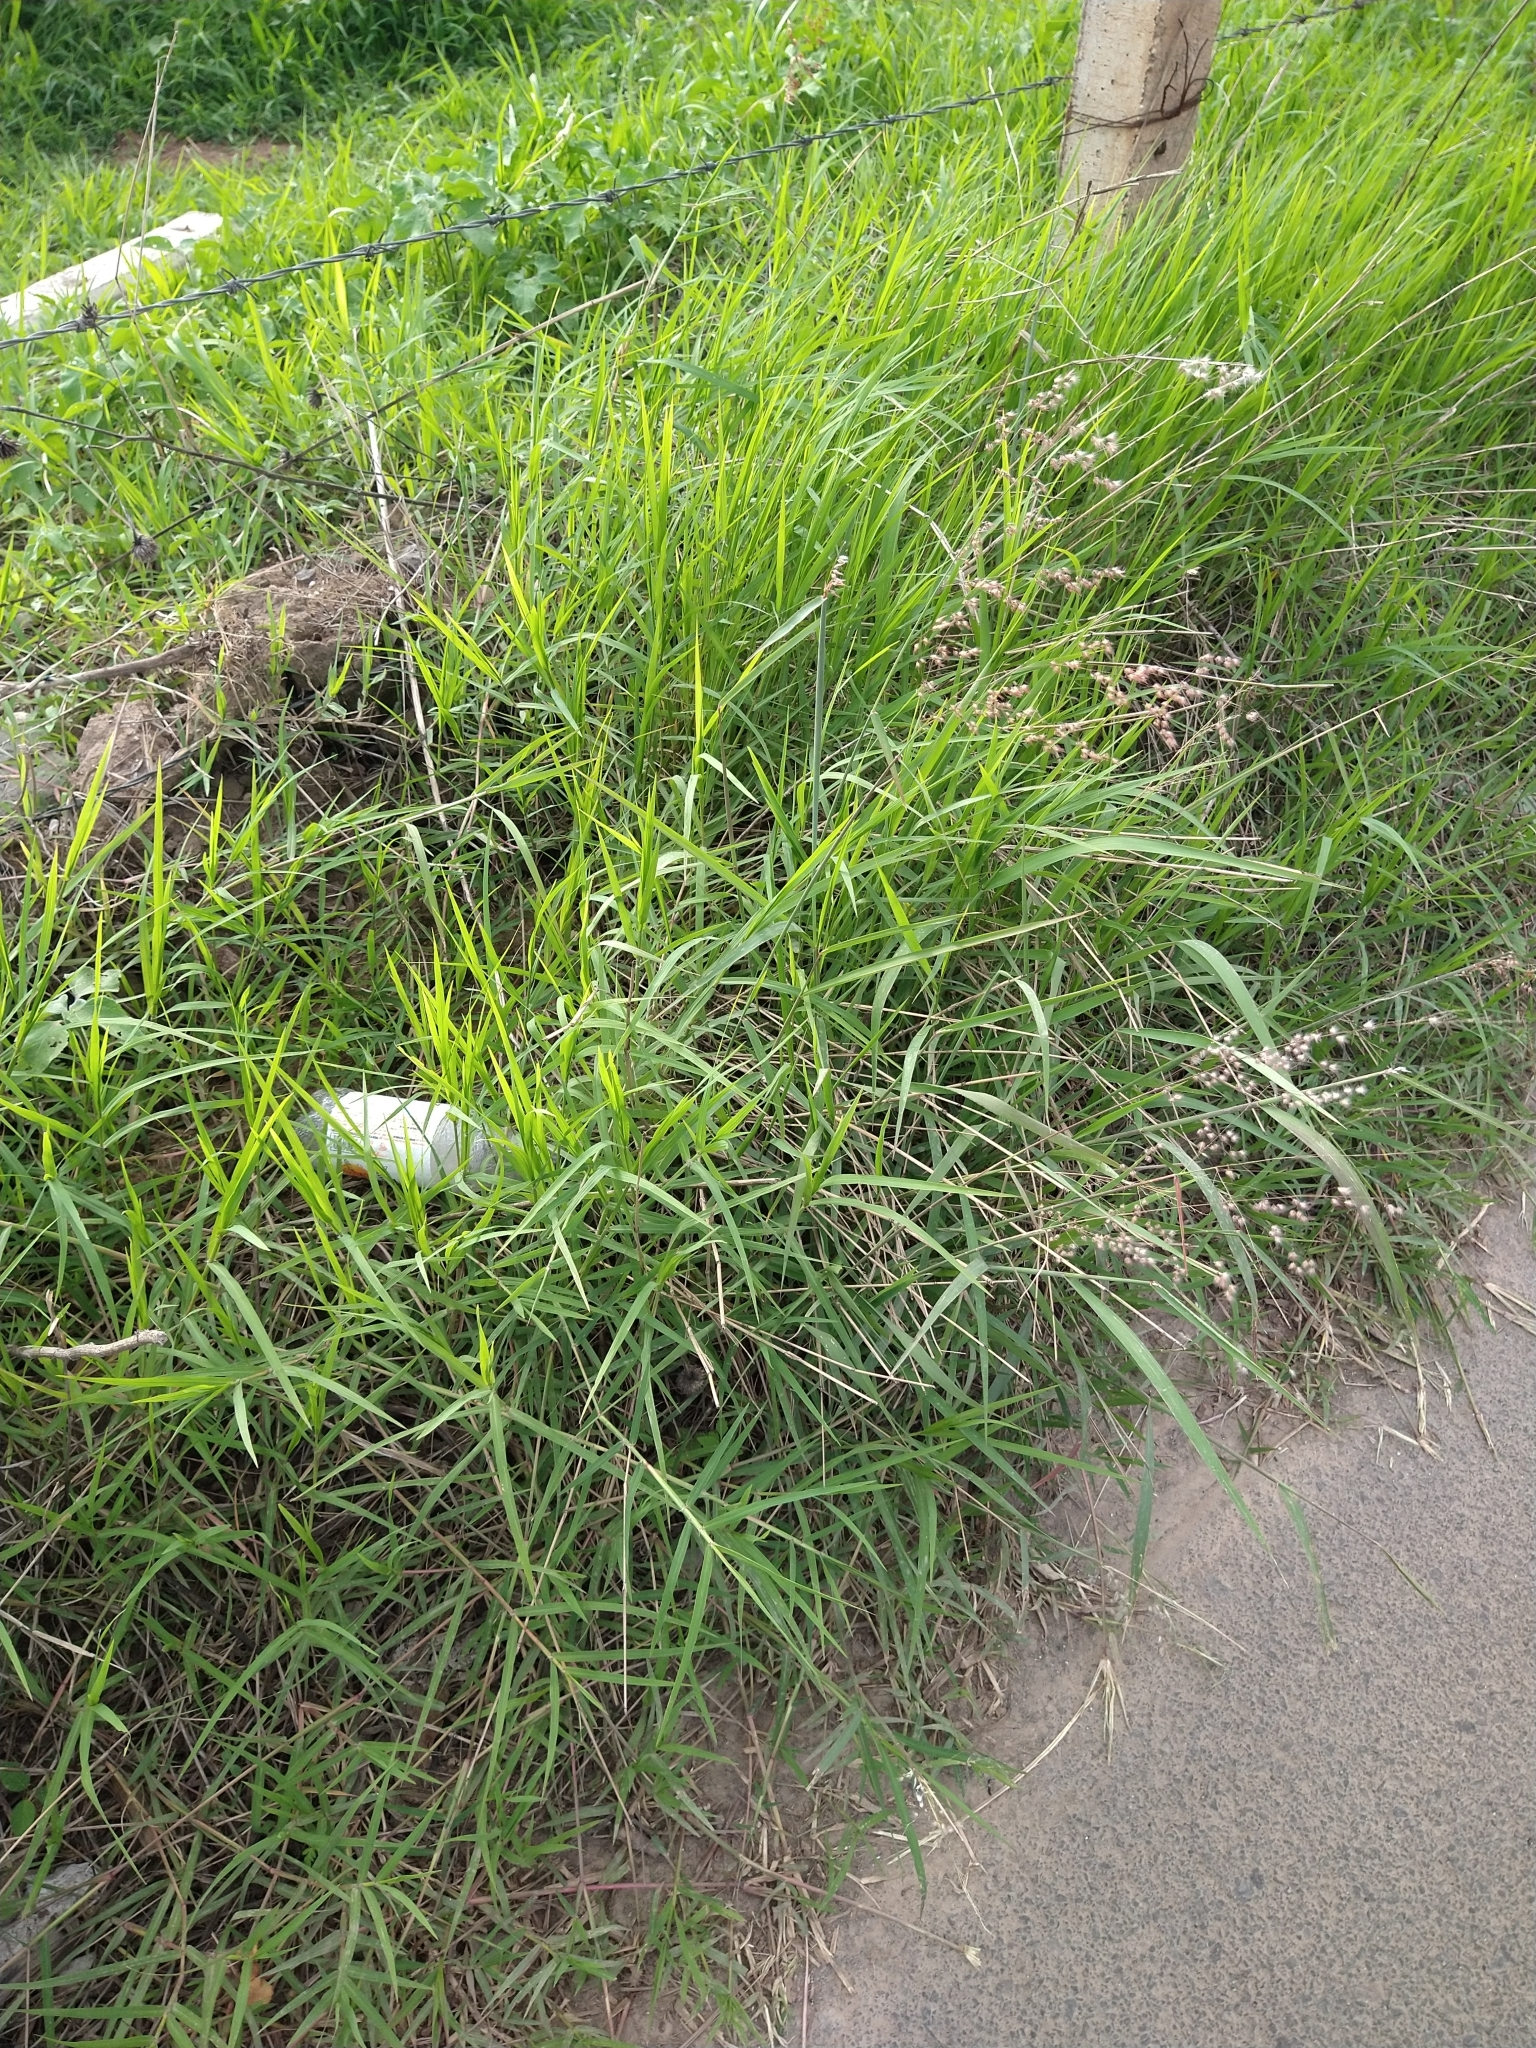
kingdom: Plantae
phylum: Tracheophyta
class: Liliopsida
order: Poales
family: Poaceae
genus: Melinis
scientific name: Melinis repens
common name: Rose natal grass
